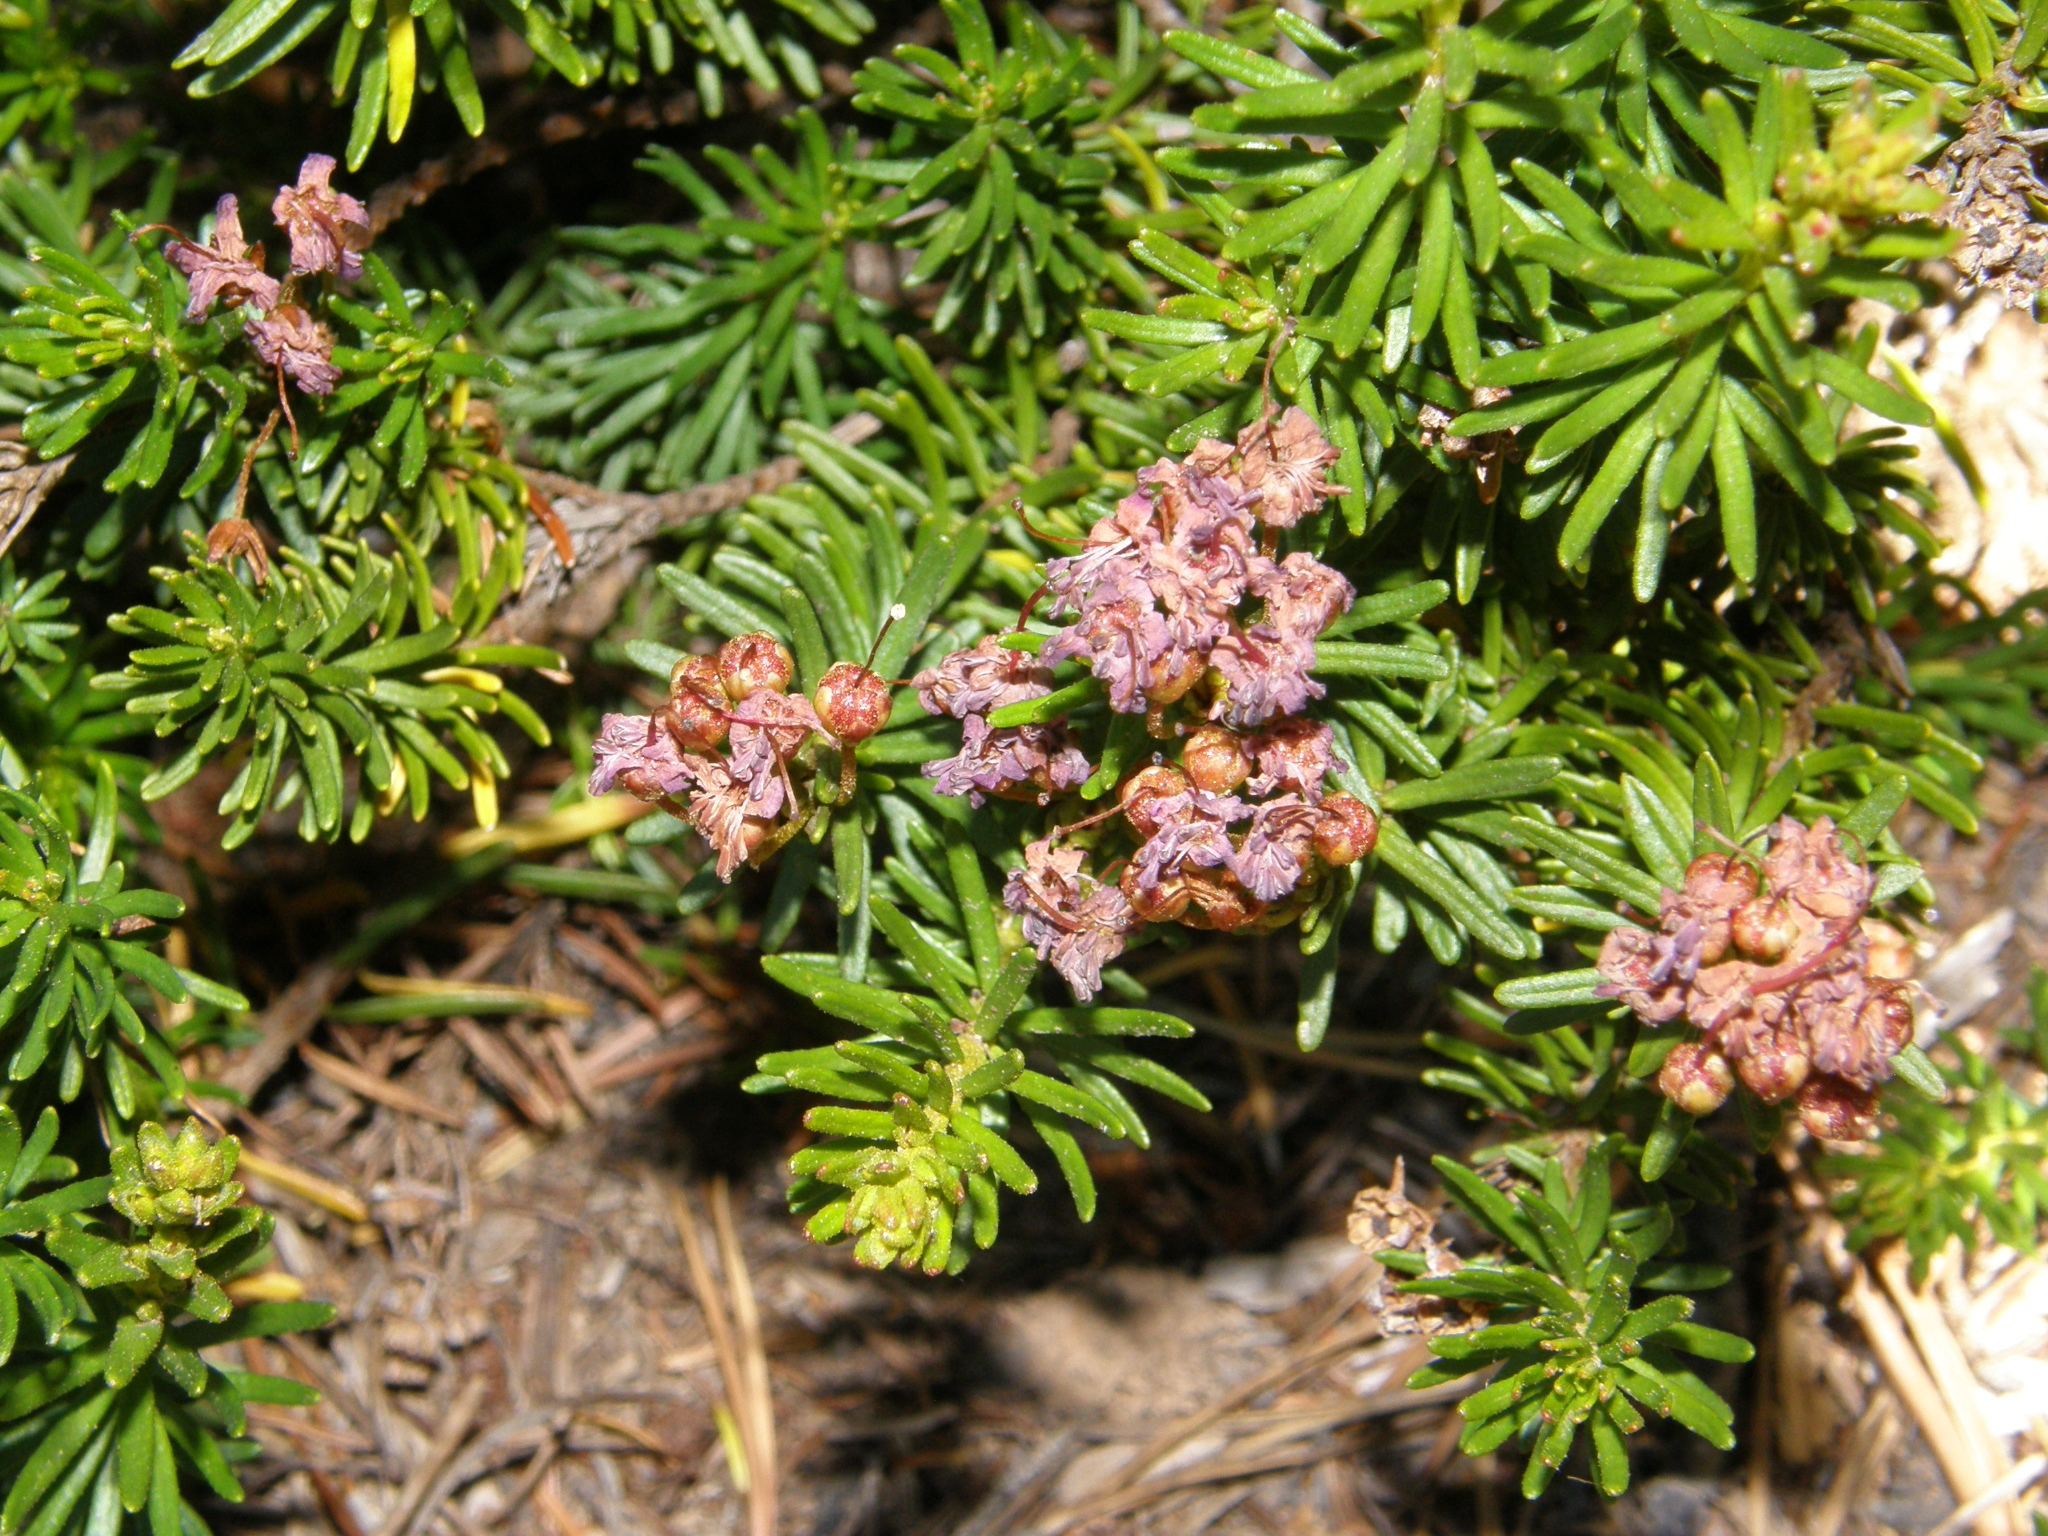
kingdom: Plantae
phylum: Tracheophyta
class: Magnoliopsida
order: Ericales
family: Ericaceae
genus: Phyllodoce
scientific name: Phyllodoce breweri
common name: Brewer's mountain-heather
